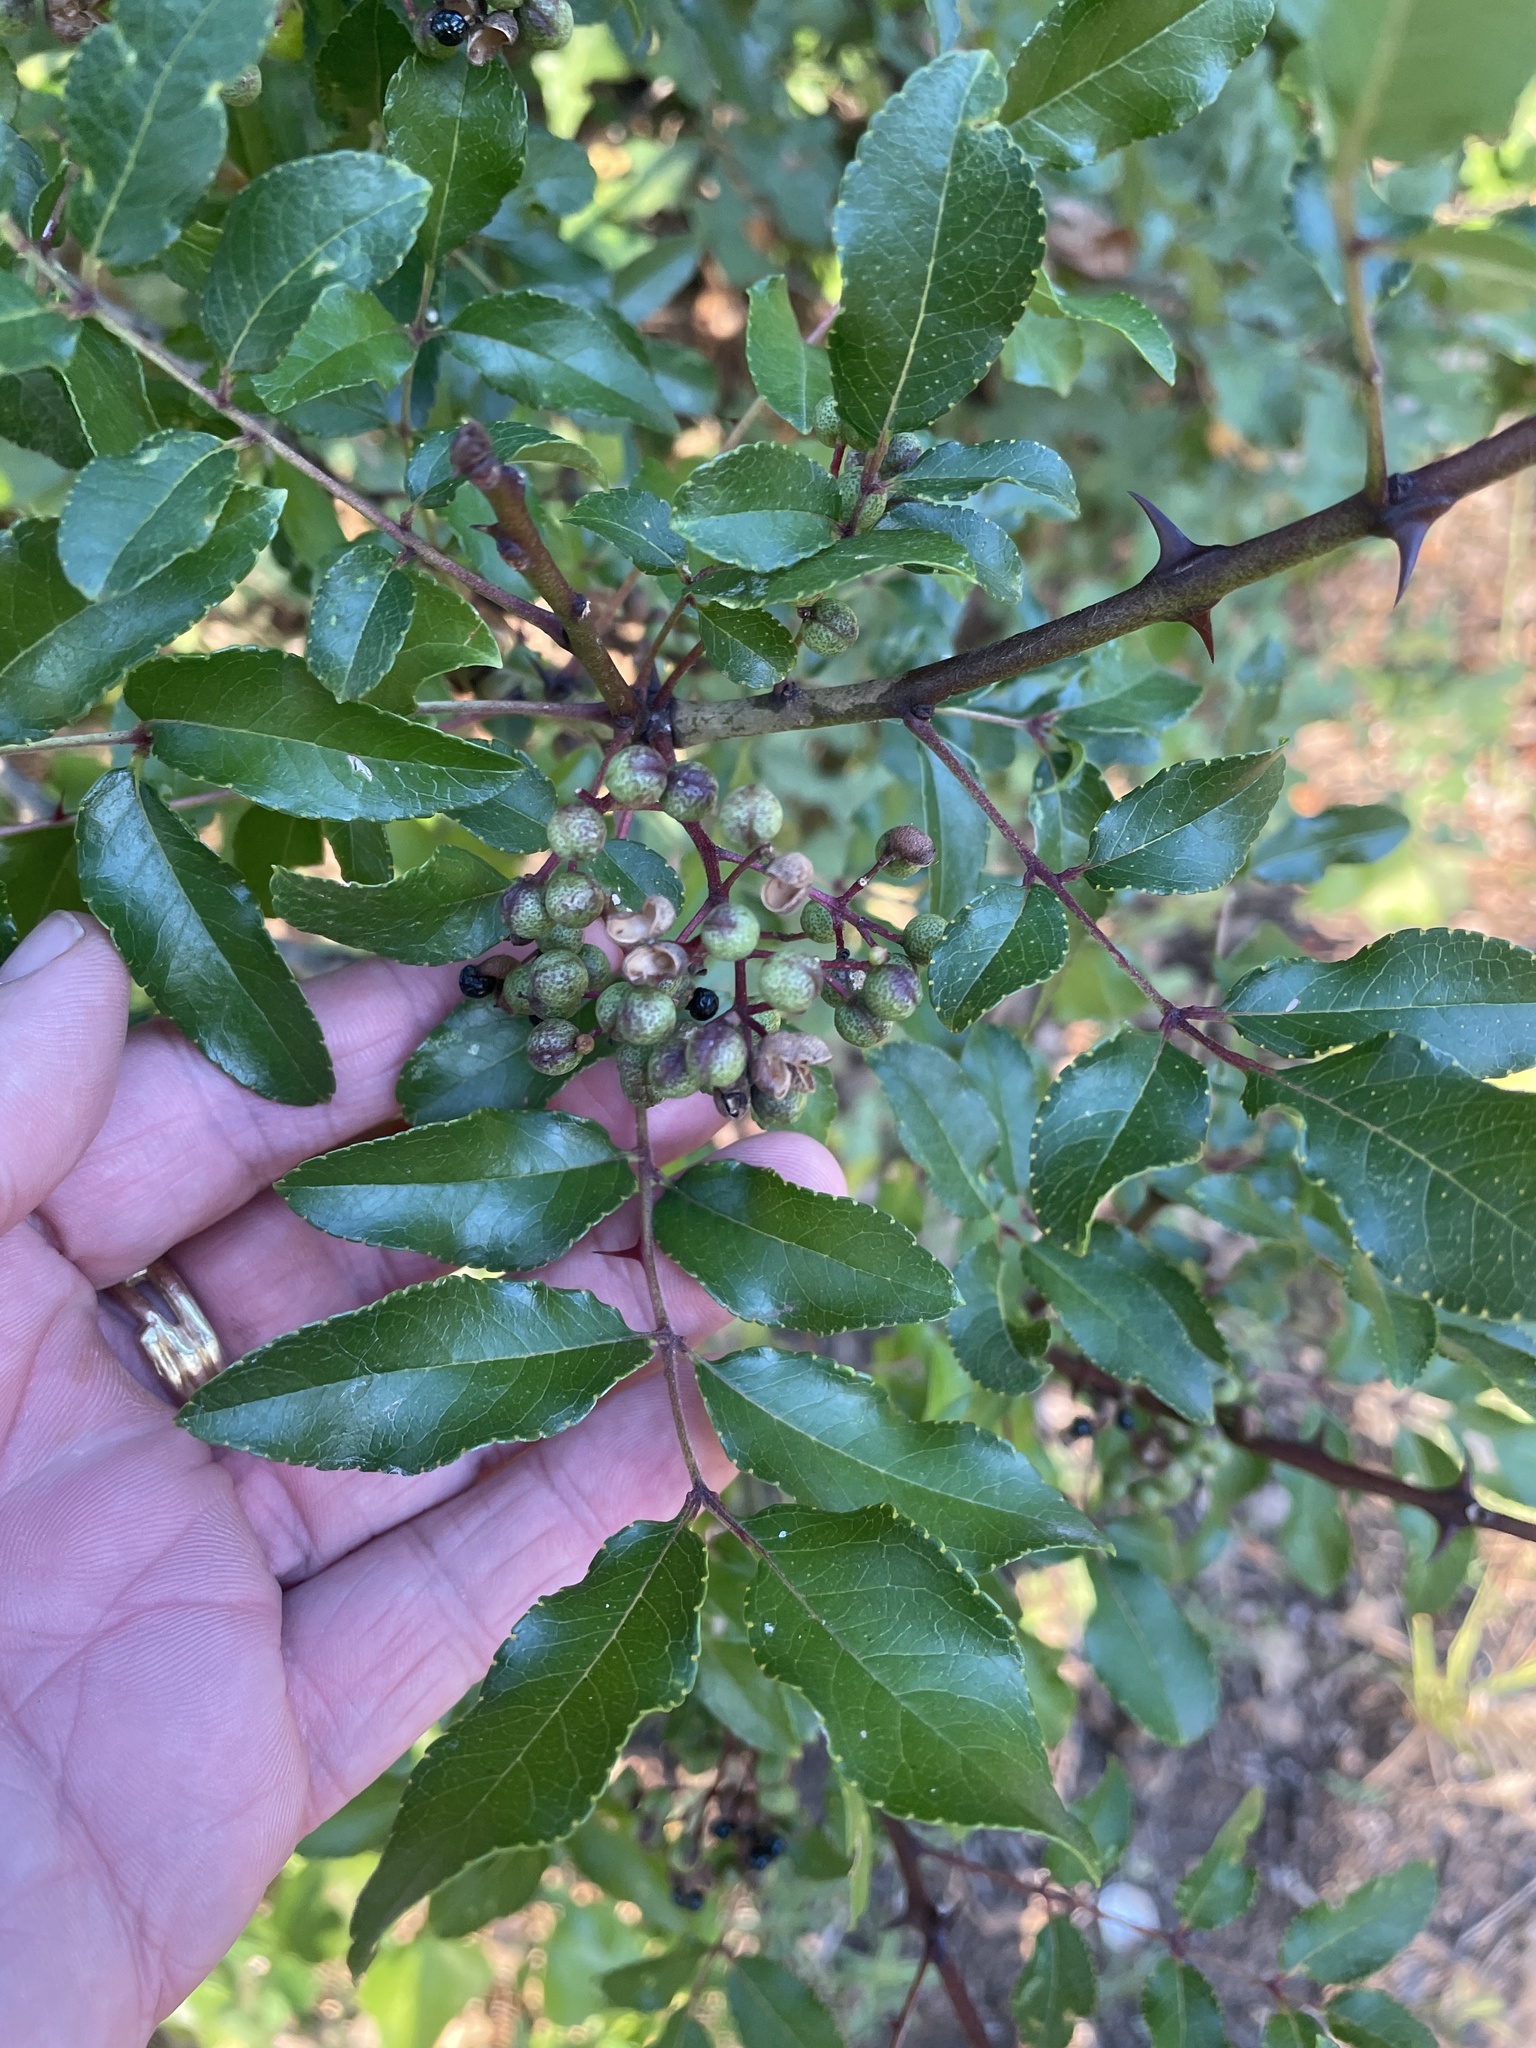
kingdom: Plantae
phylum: Tracheophyta
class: Magnoliopsida
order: Sapindales
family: Rutaceae
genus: Zanthoxylum
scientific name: Zanthoxylum clava-herculis
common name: Hercules'-club
